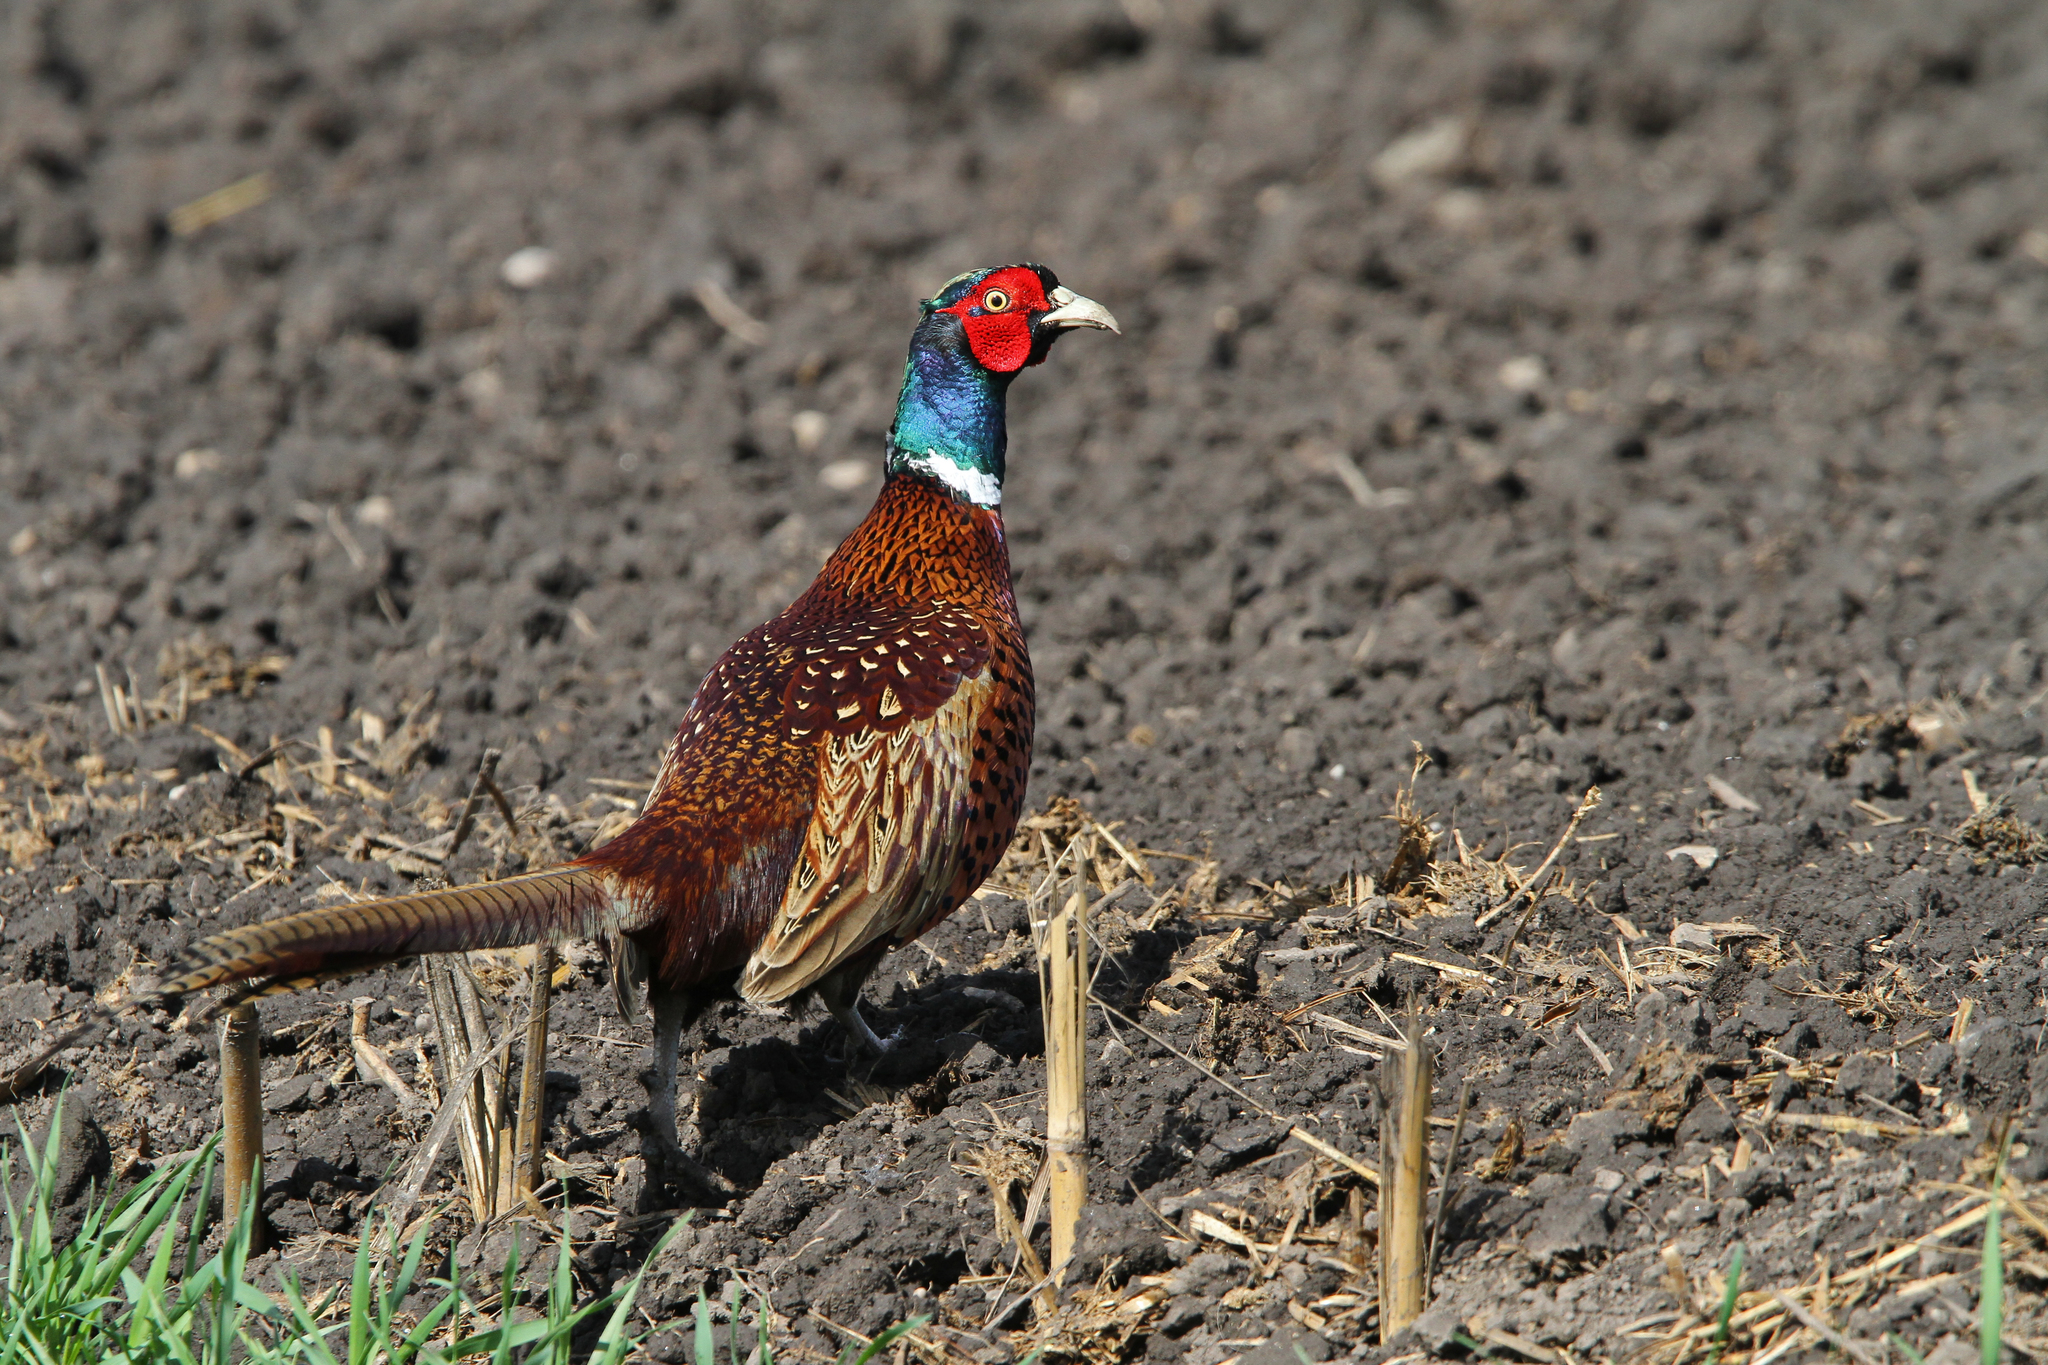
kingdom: Animalia
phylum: Chordata
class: Aves
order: Galliformes
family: Phasianidae
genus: Phasianus
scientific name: Phasianus colchicus
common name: Common pheasant
